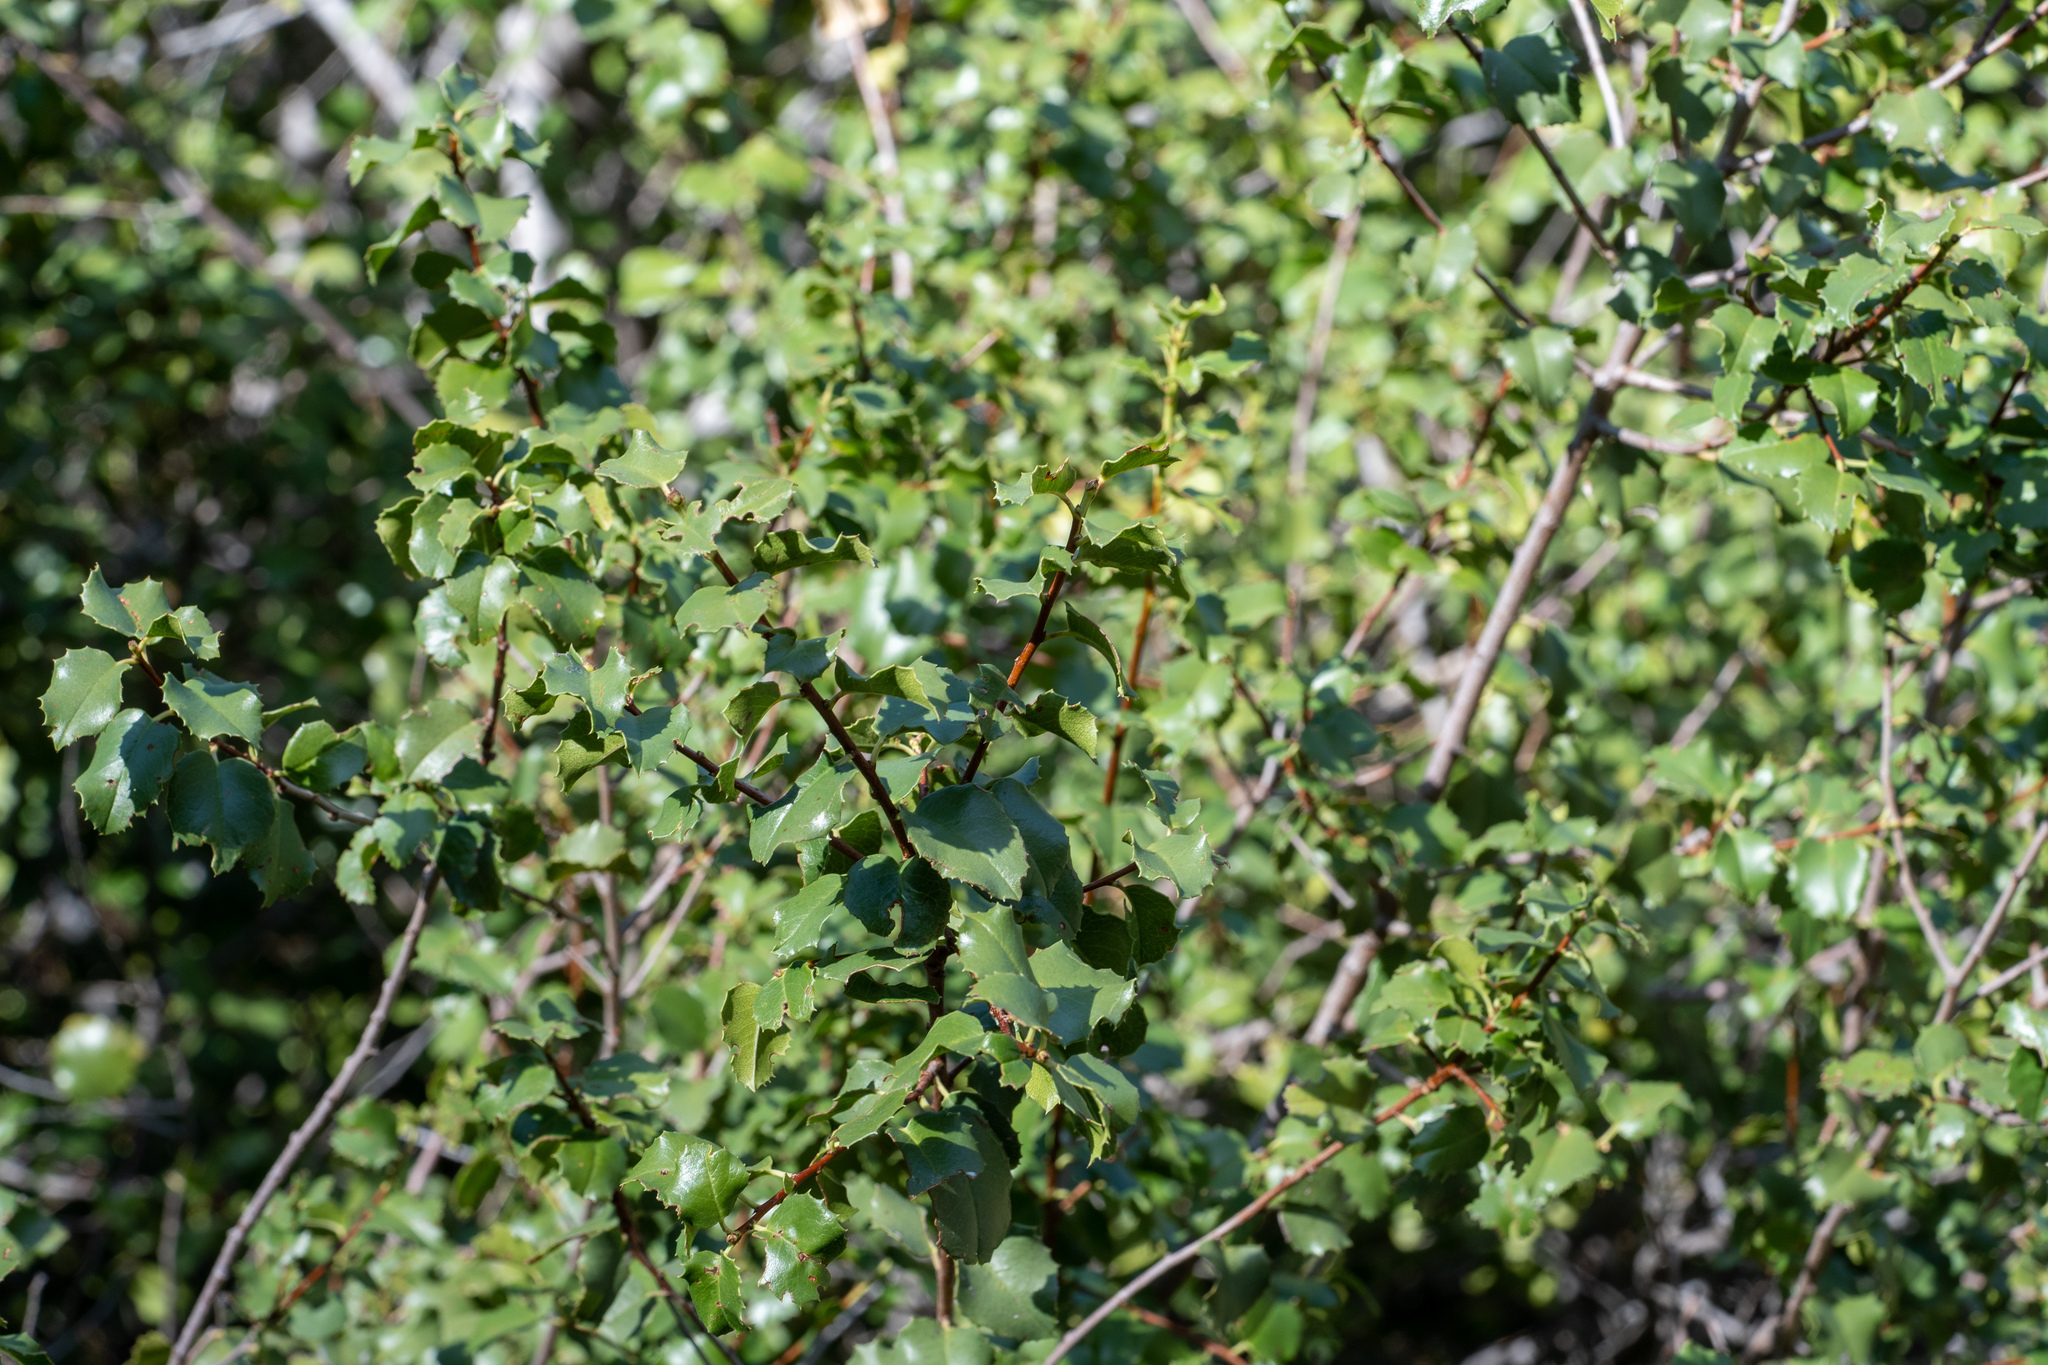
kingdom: Plantae
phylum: Tracheophyta
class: Magnoliopsida
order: Rosales
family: Rosaceae
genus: Prunus
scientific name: Prunus ilicifolia
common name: Hollyleaf cherry
